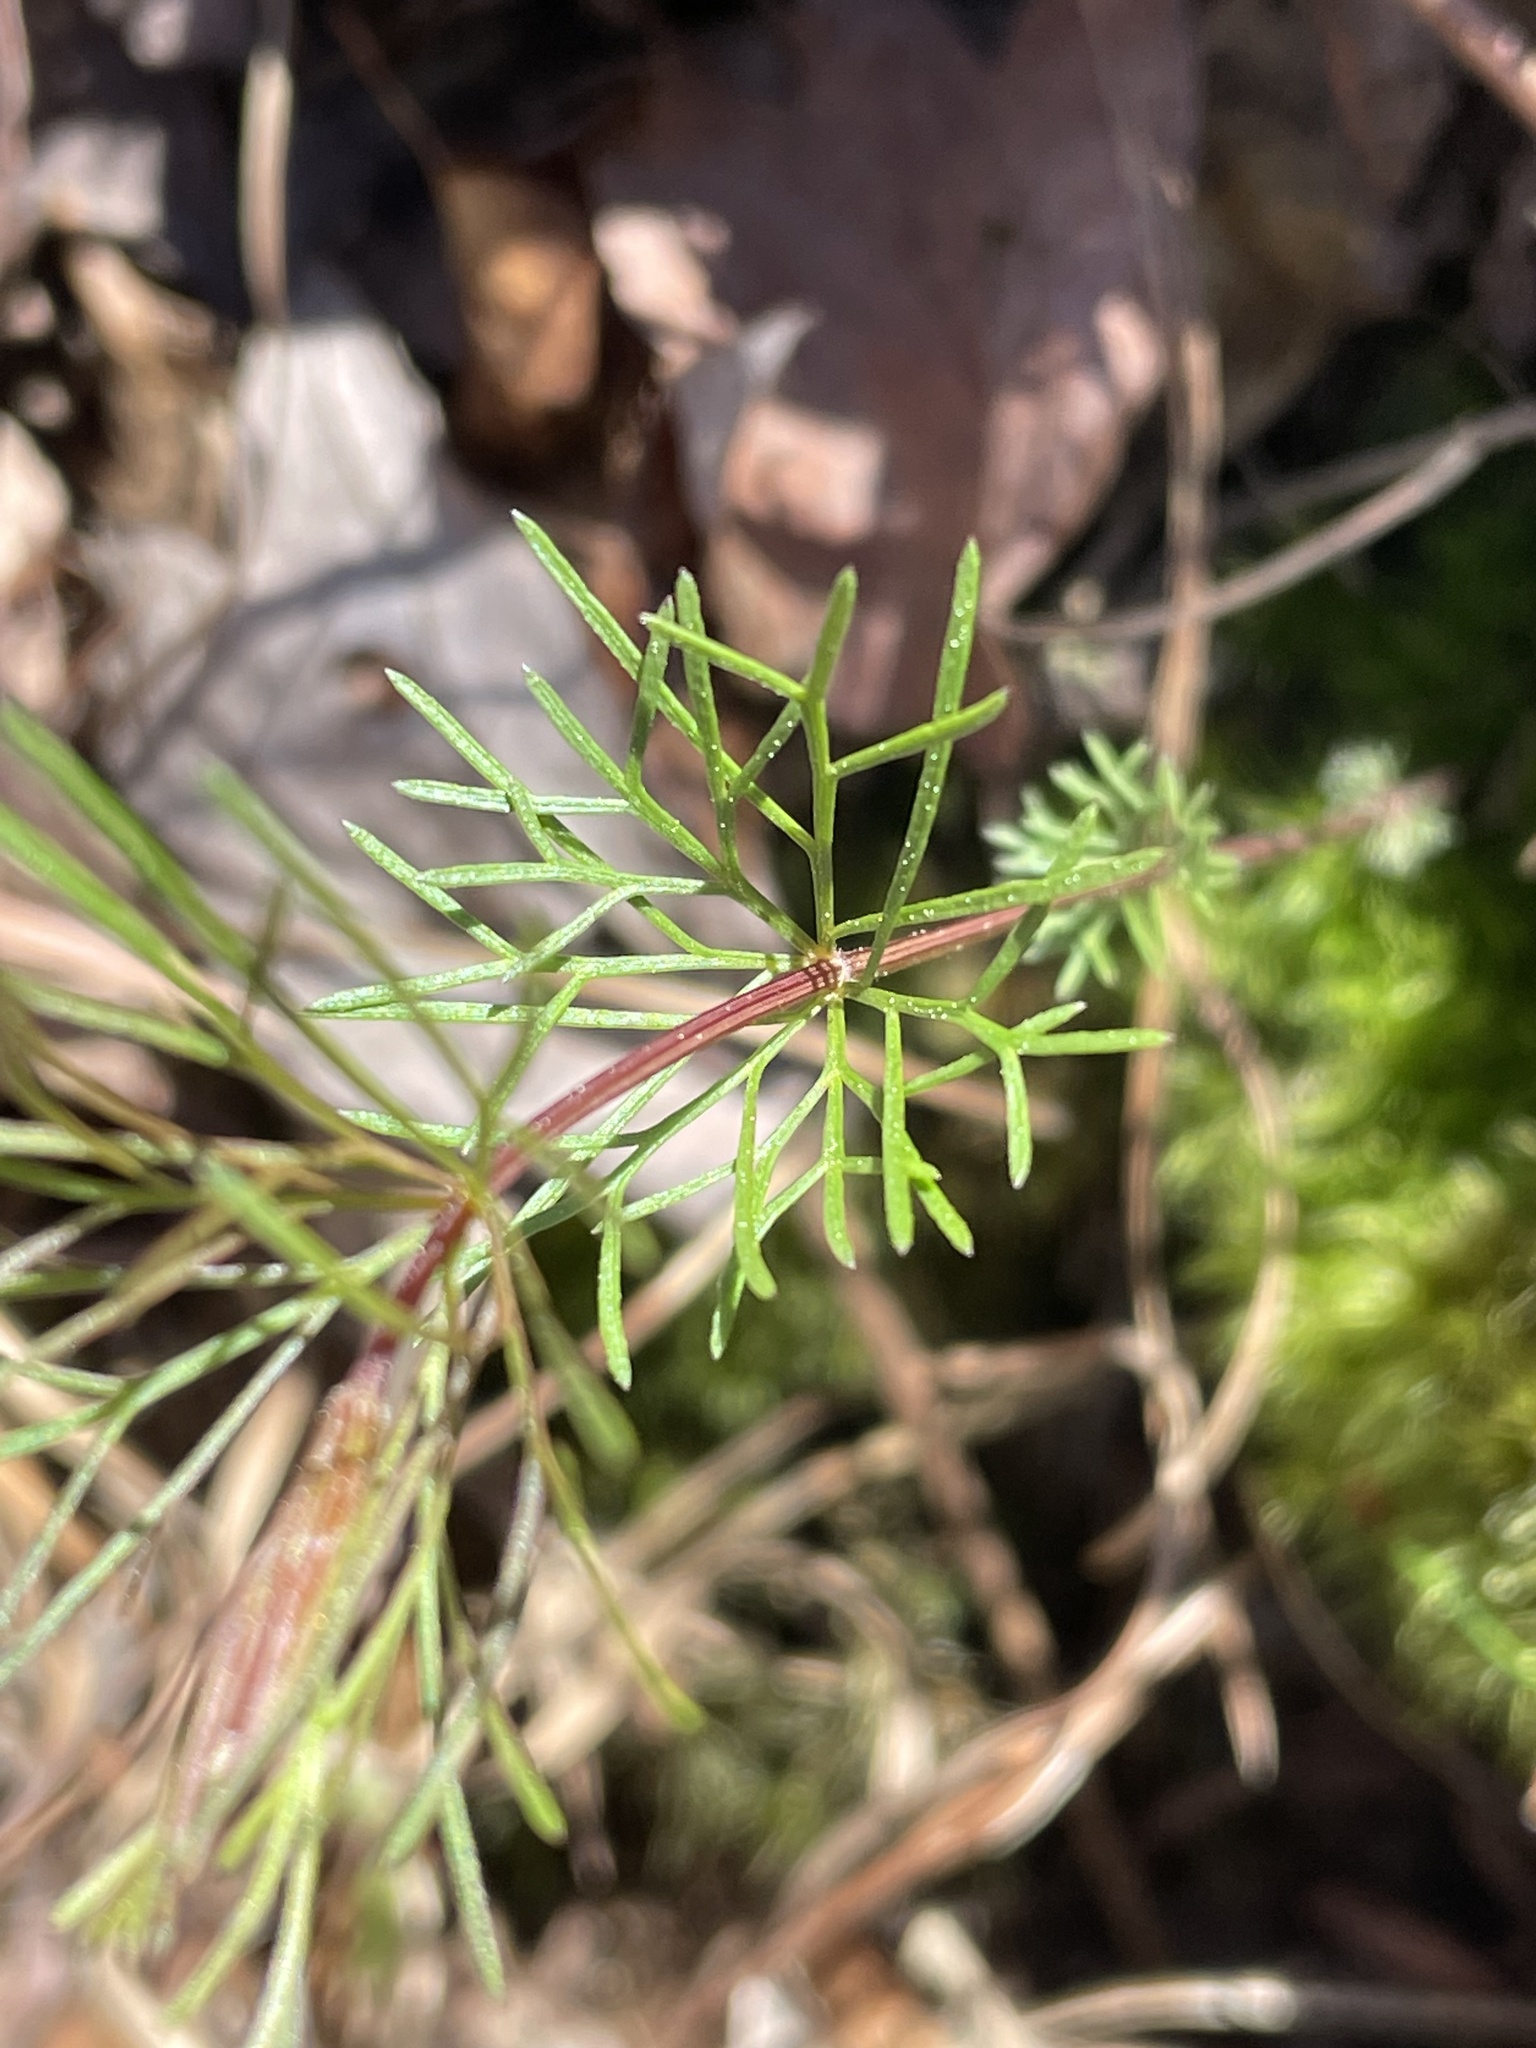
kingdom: Plantae
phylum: Tracheophyta
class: Magnoliopsida
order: Asterales
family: Asteraceae
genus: Coreopsis
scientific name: Coreopsis verticillata
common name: Whorled tickseed
